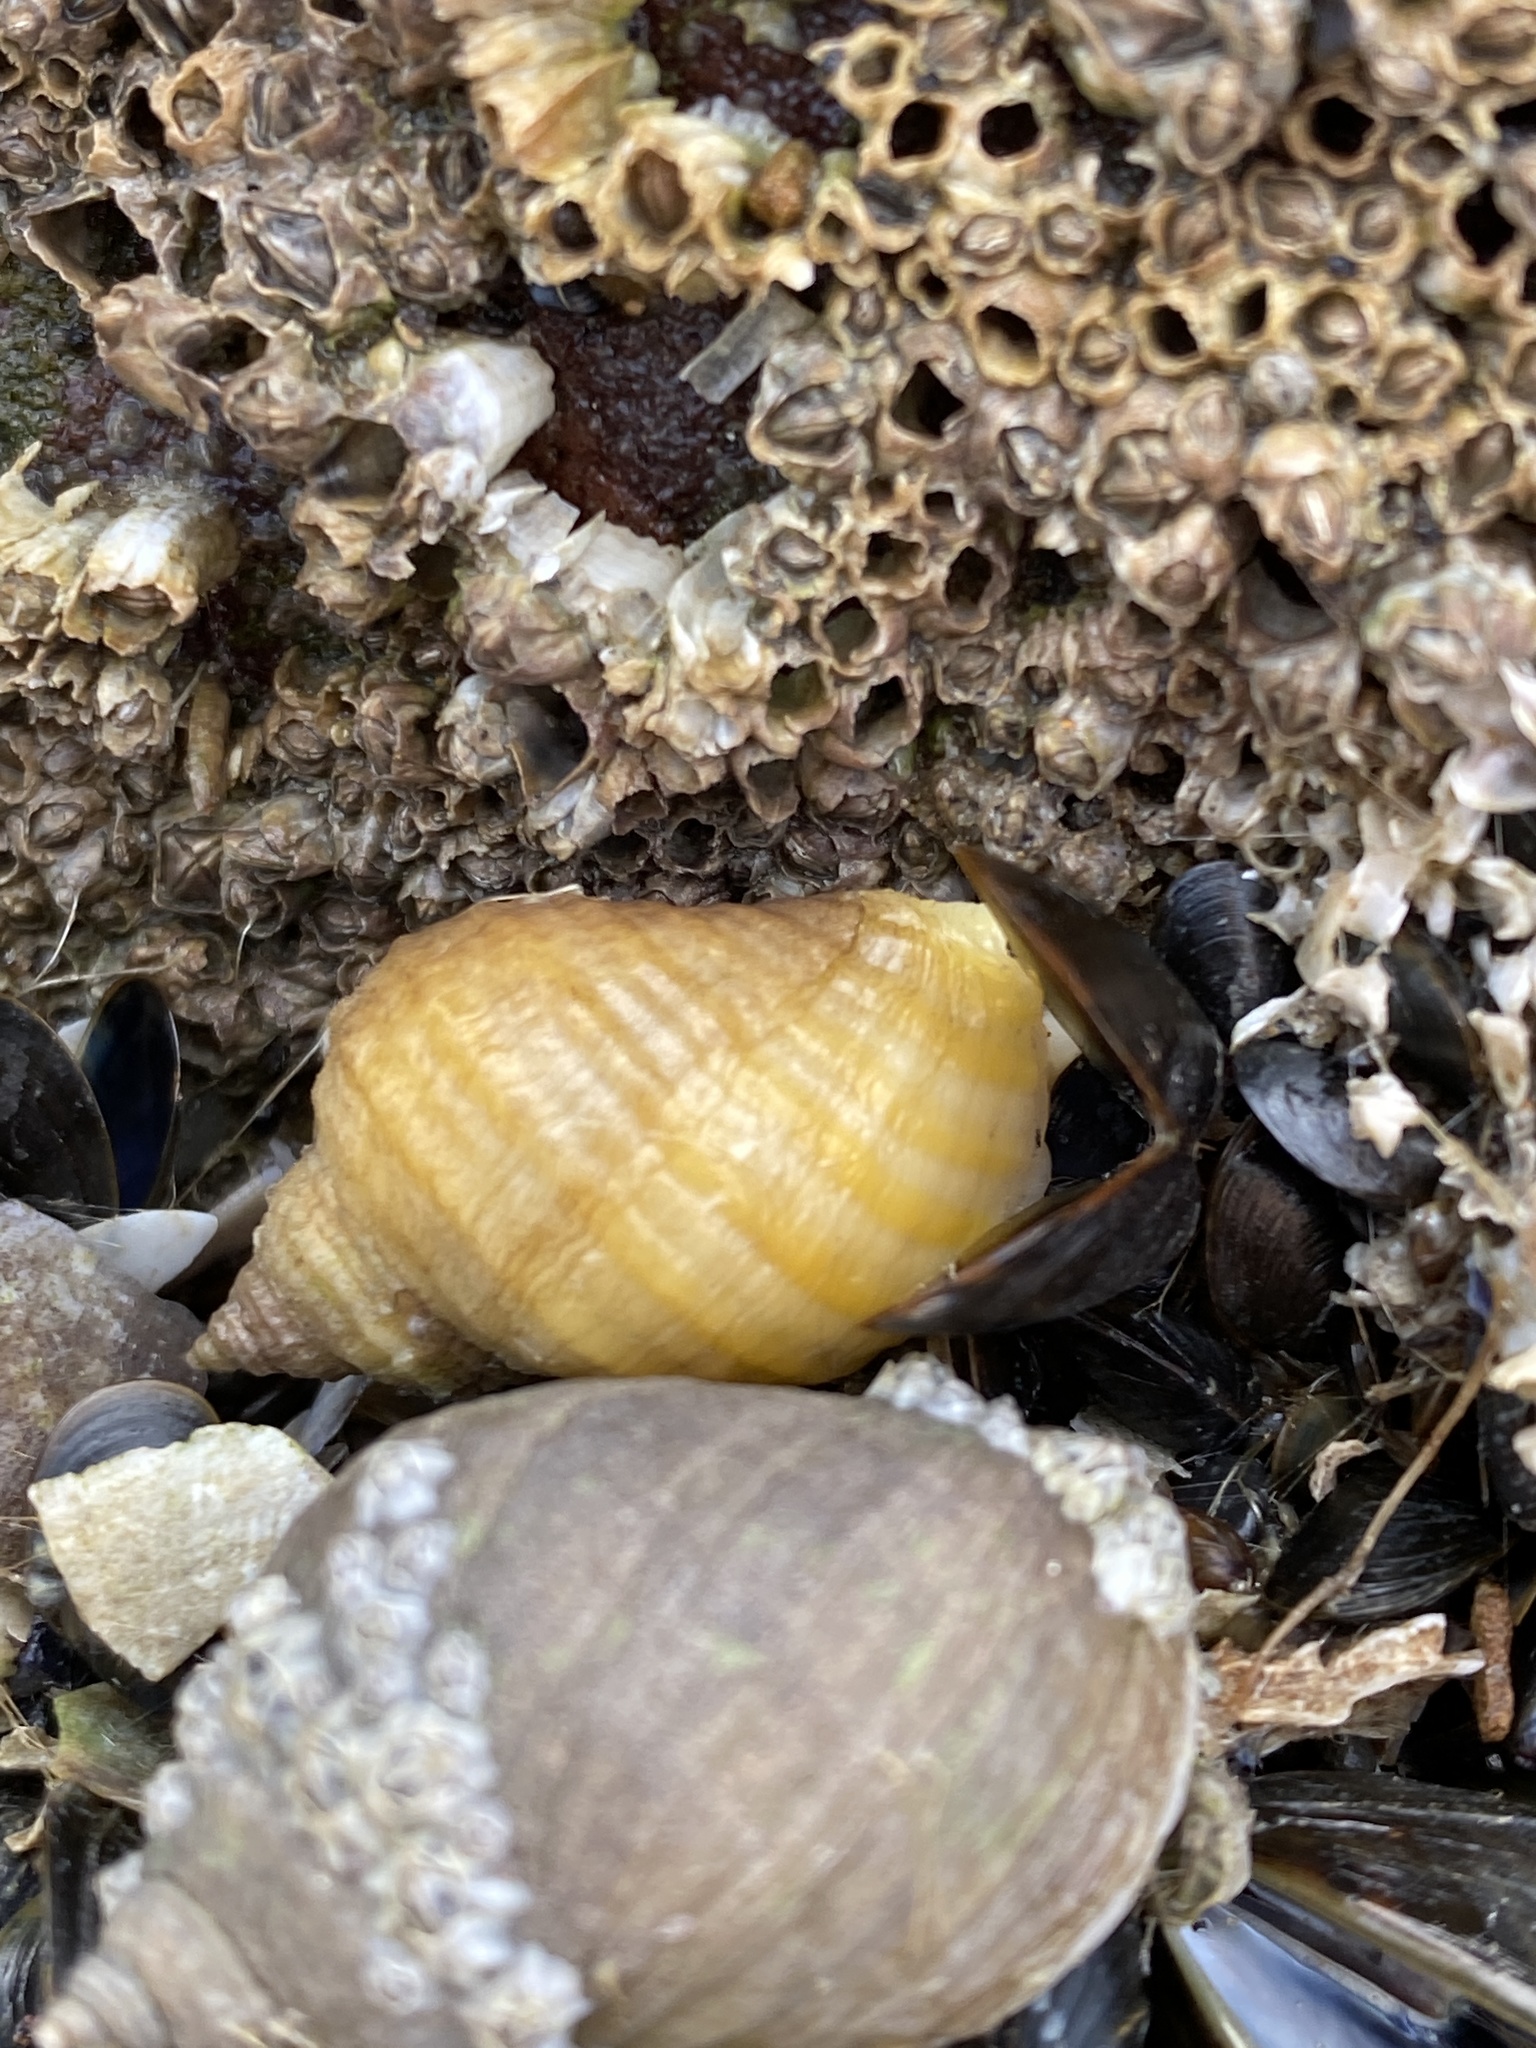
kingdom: Animalia
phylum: Mollusca
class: Gastropoda
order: Neogastropoda
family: Muricidae
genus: Nucella
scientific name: Nucella lapillus
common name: Dog whelk
